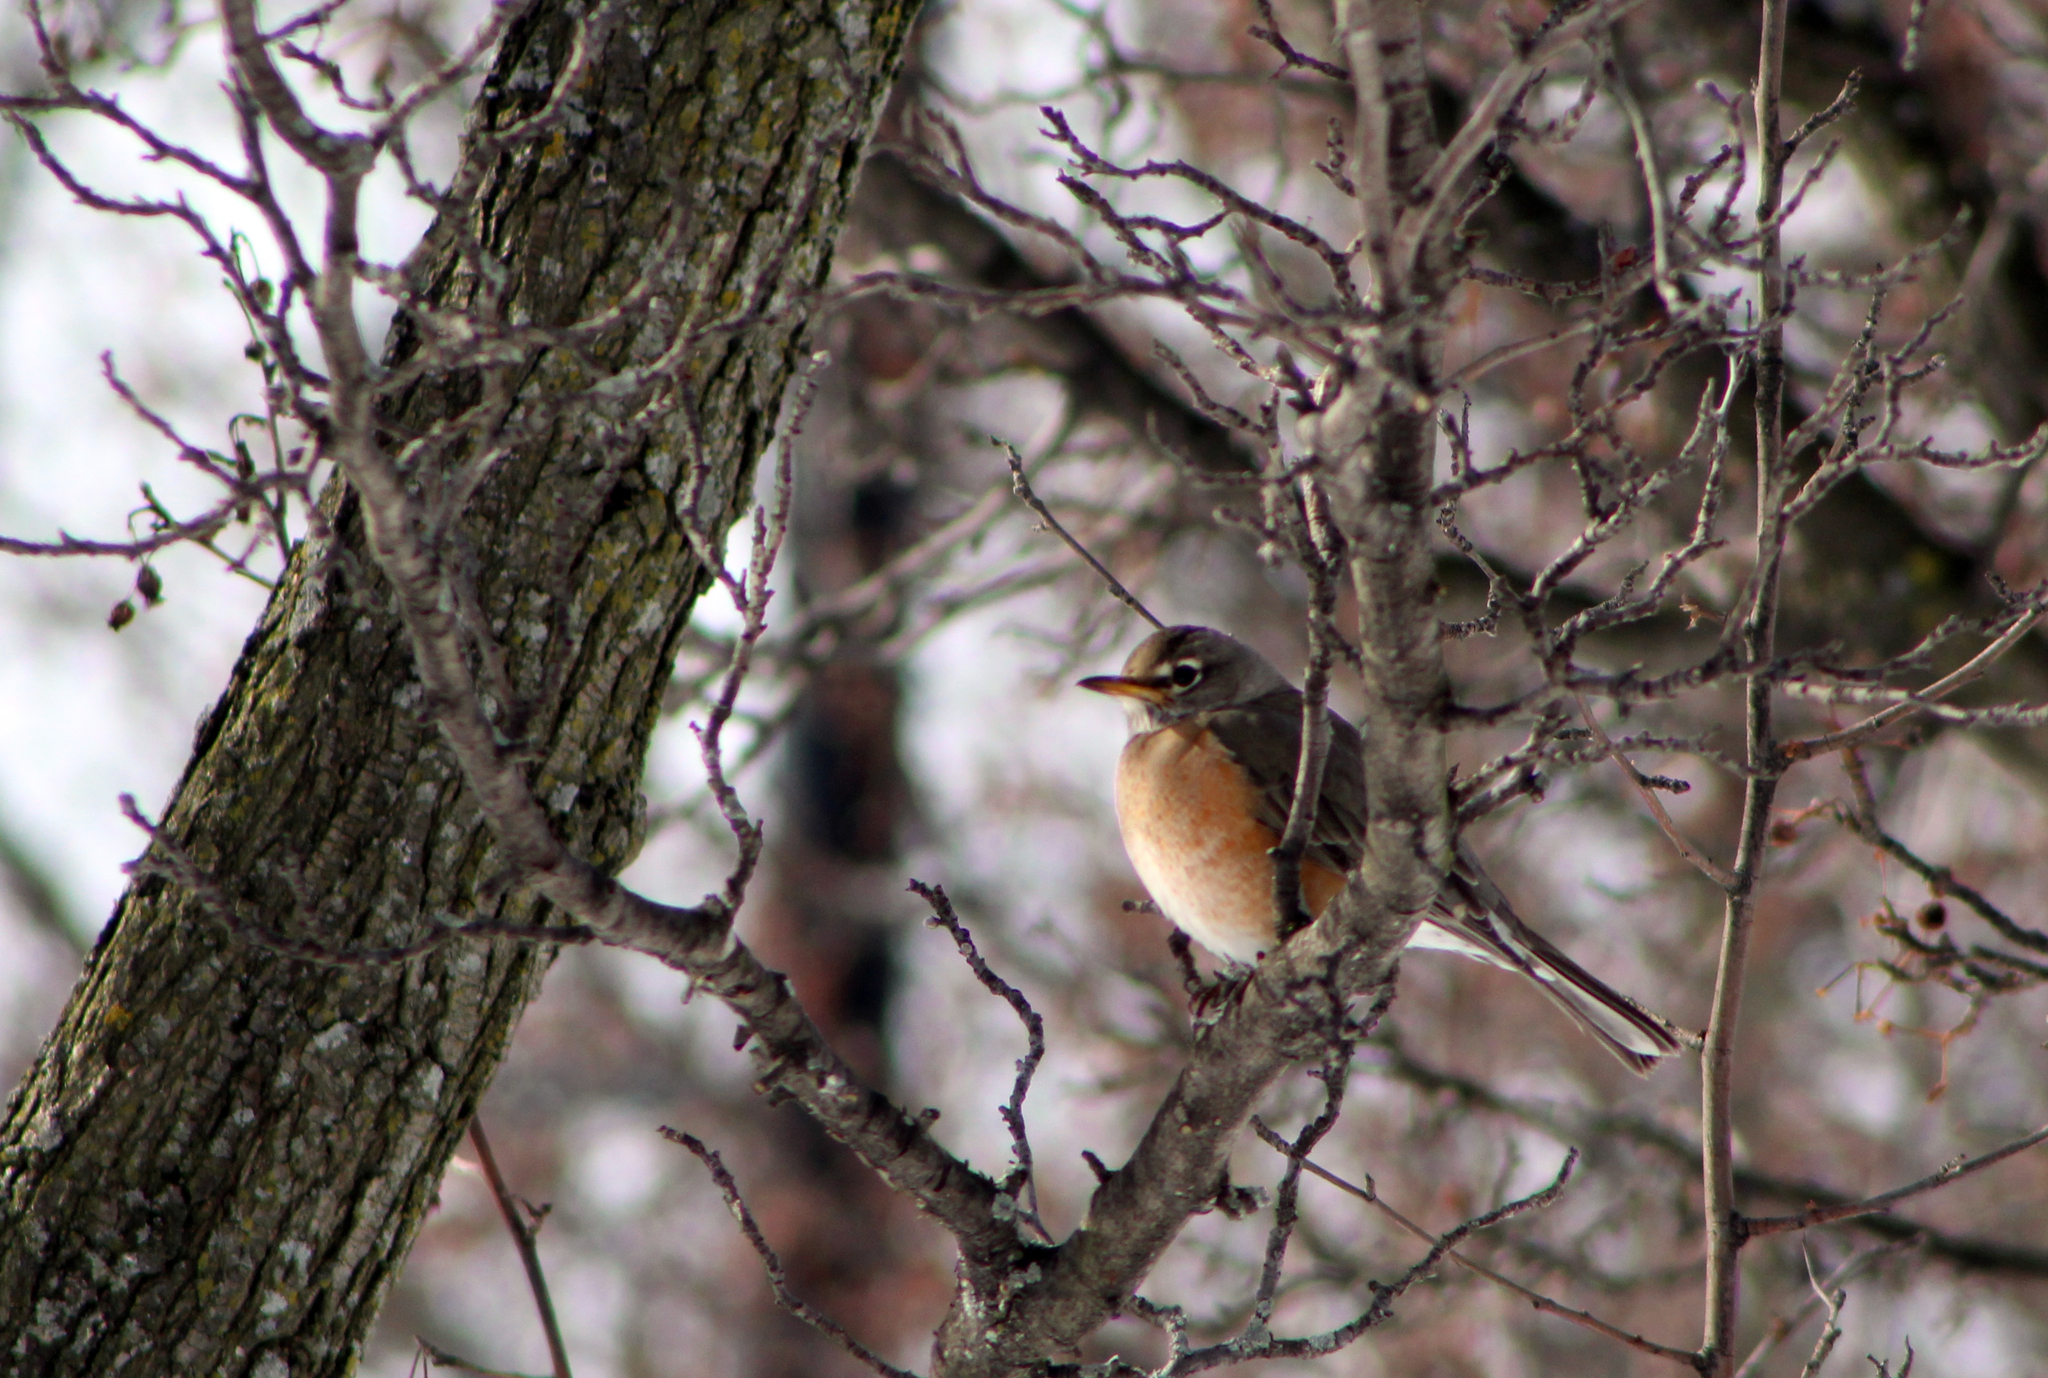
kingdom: Animalia
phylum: Chordata
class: Aves
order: Passeriformes
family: Turdidae
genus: Turdus
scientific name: Turdus migratorius
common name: American robin
